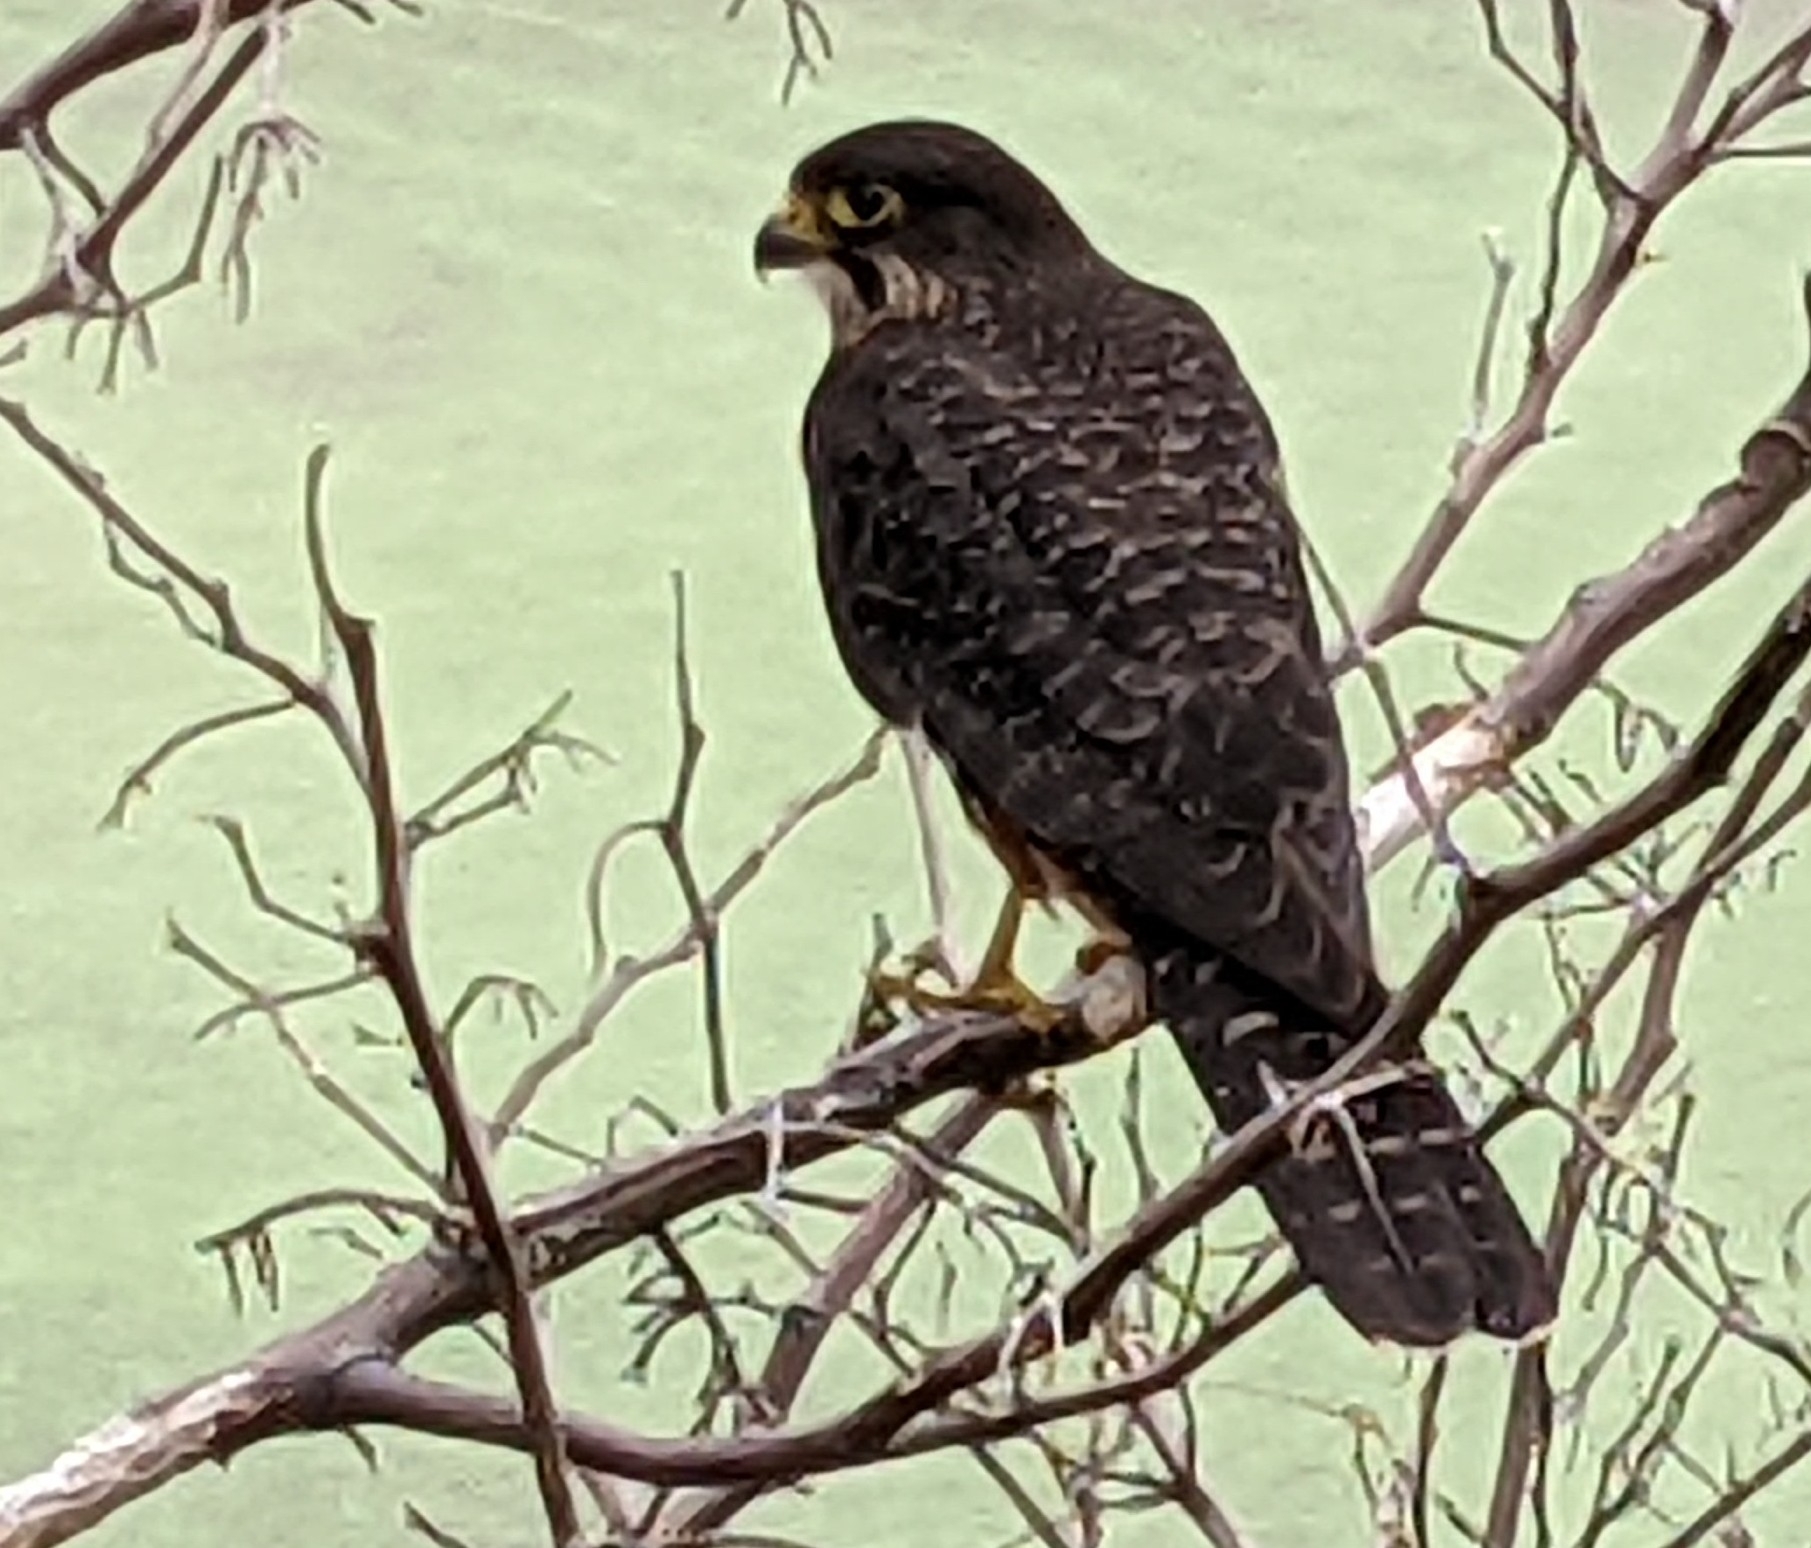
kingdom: Animalia
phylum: Chordata
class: Aves
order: Falconiformes
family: Falconidae
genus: Falco
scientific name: Falco novaeseelandiae
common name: New zealand falcon
